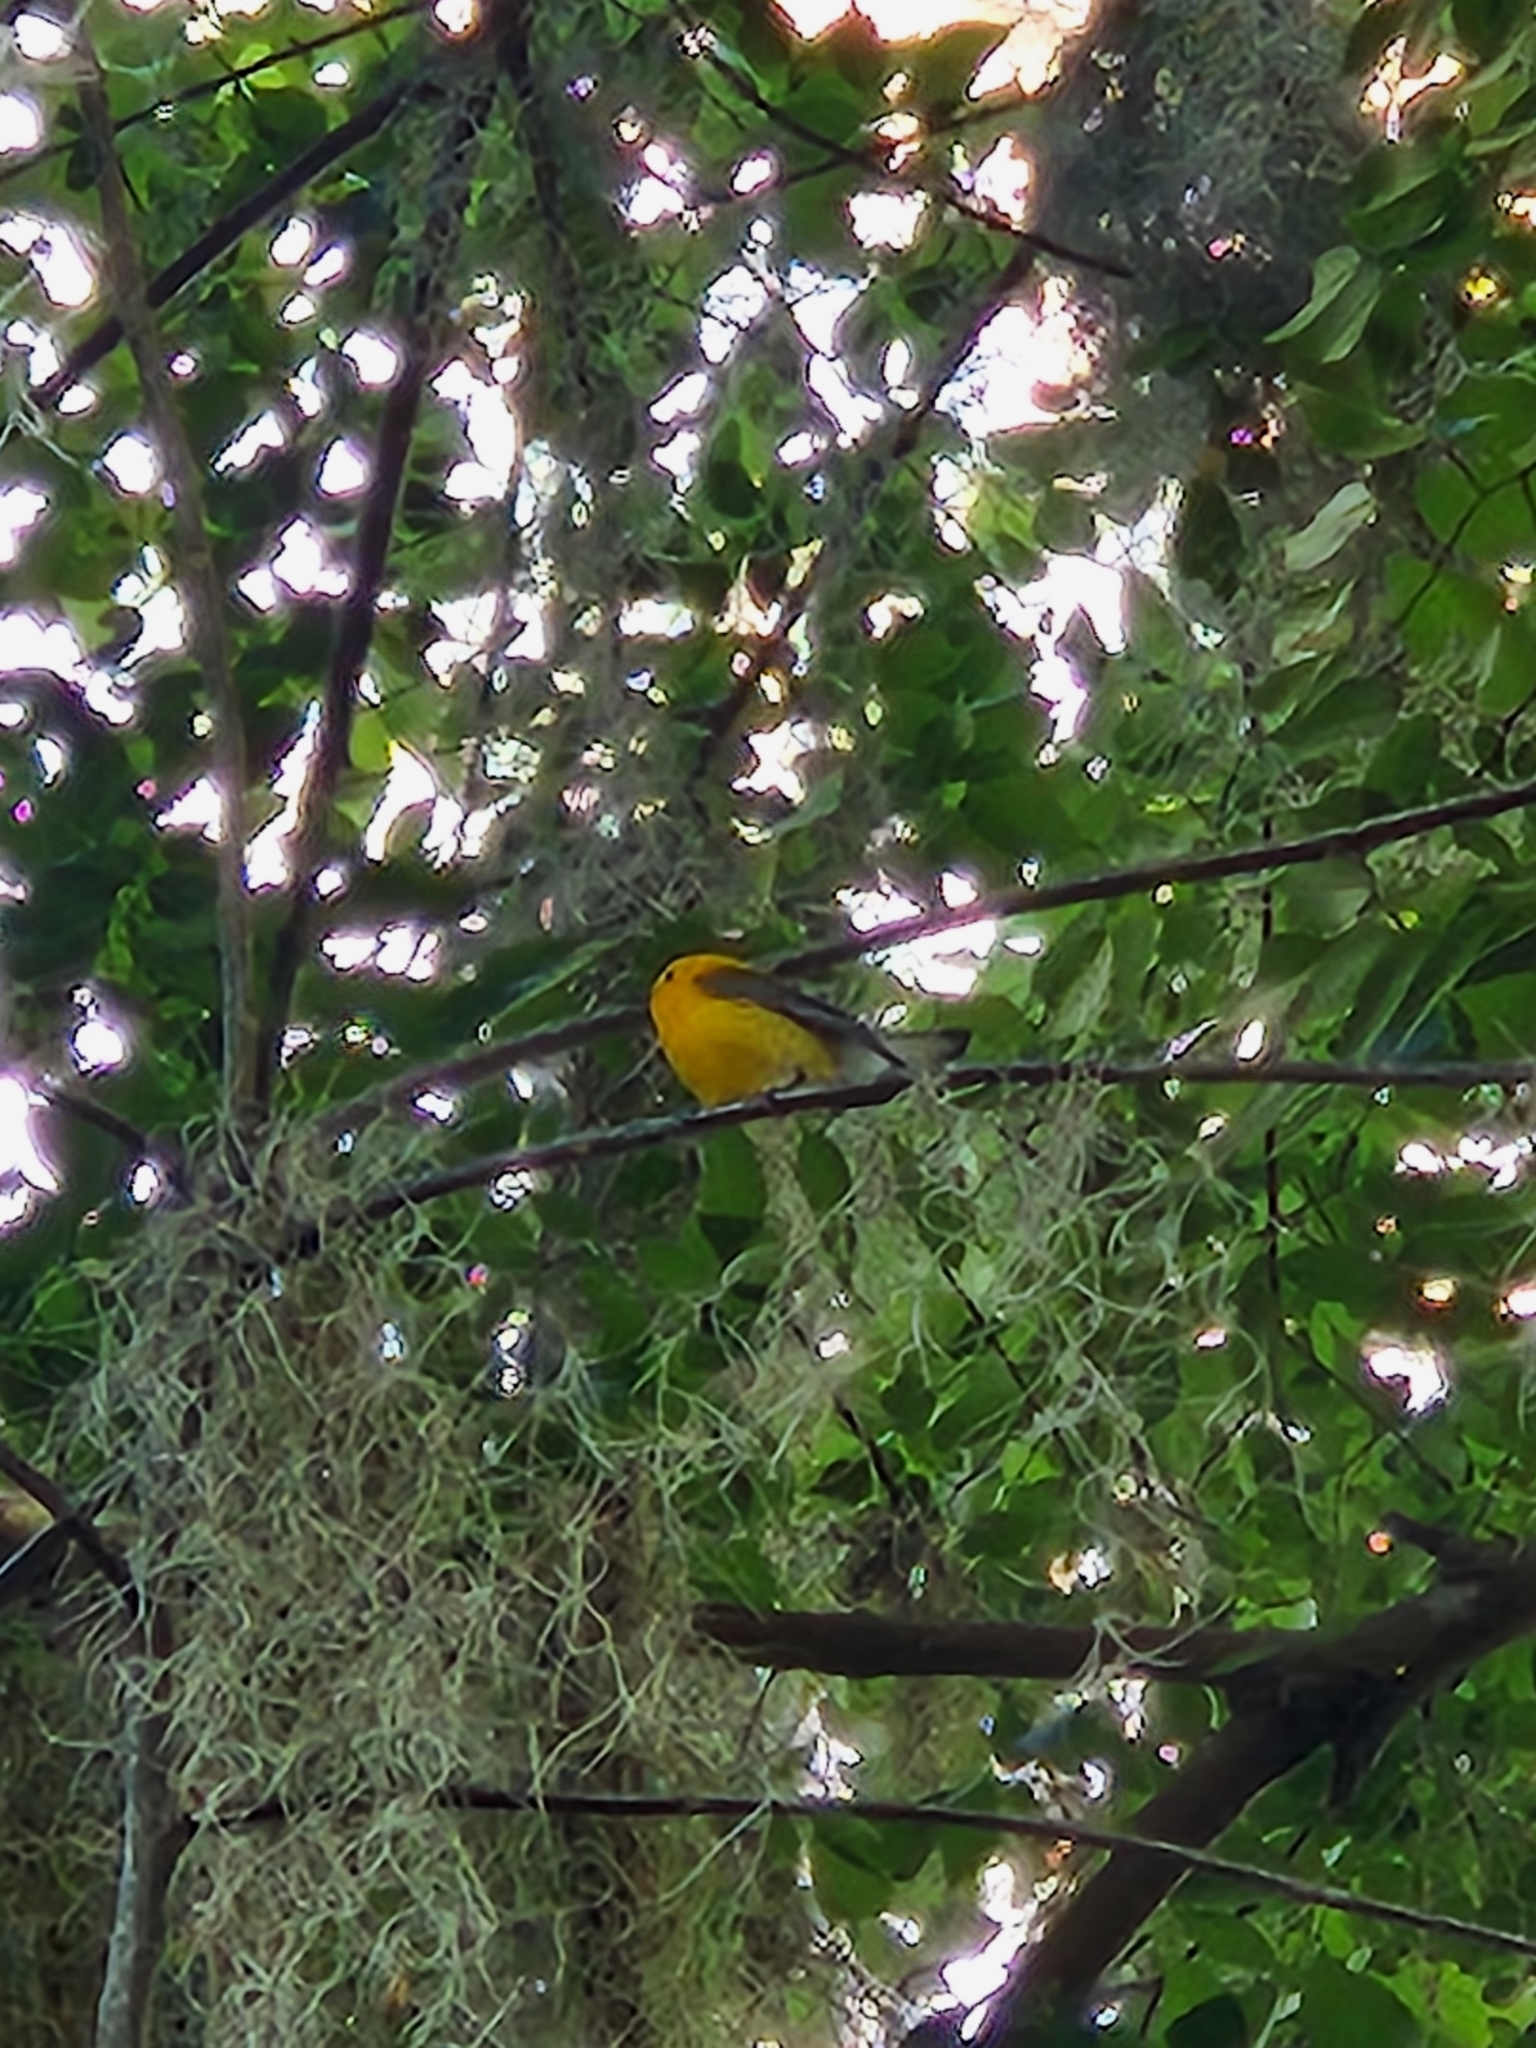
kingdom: Animalia
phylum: Chordata
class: Aves
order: Passeriformes
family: Parulidae
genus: Protonotaria
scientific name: Protonotaria citrea
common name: Prothonotary warbler
